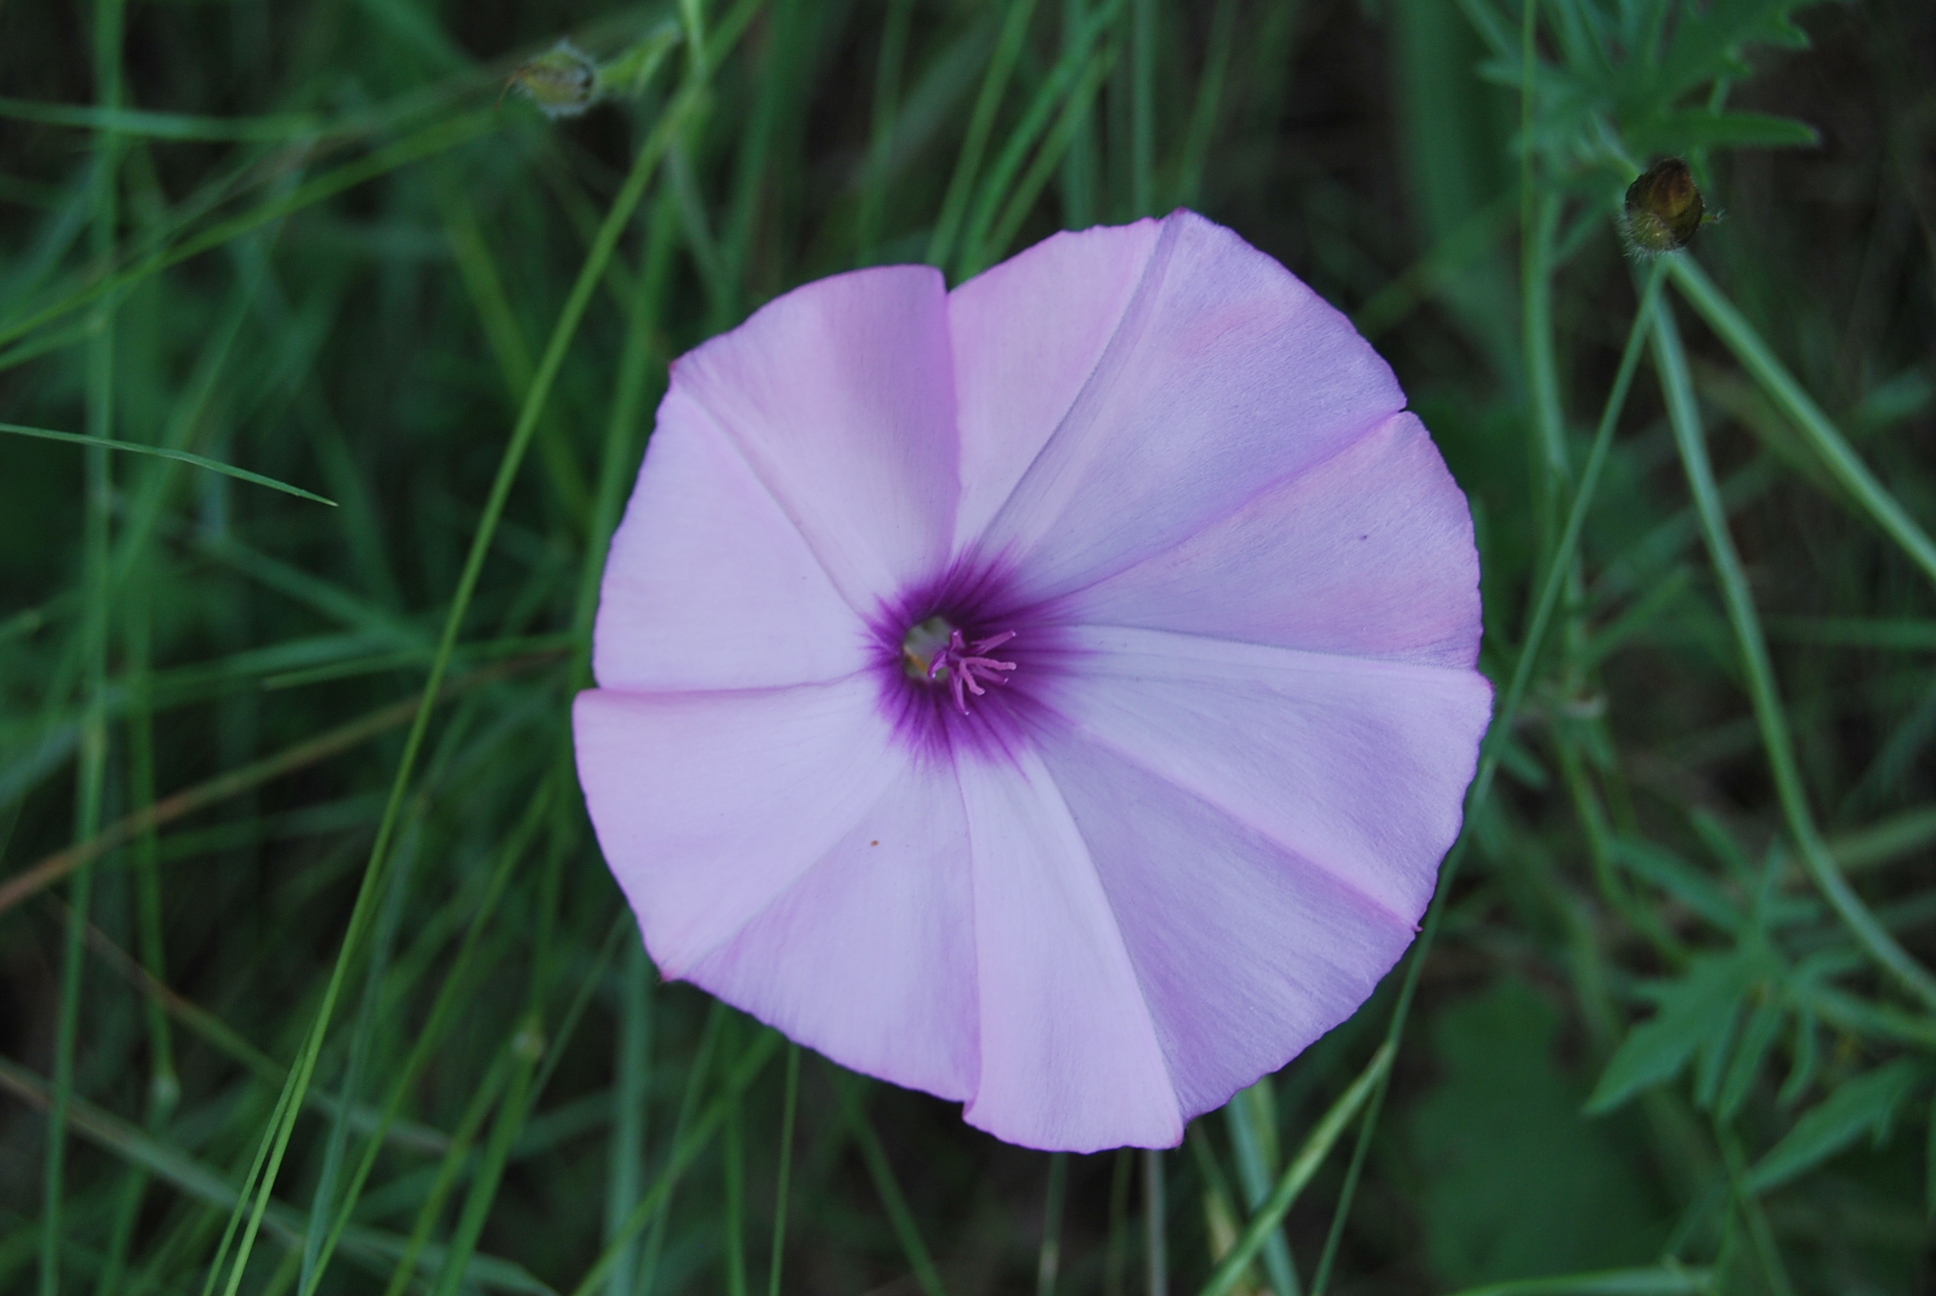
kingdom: Plantae
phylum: Tracheophyta
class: Magnoliopsida
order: Solanales
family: Convolvulaceae
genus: Convolvulus
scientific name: Convolvulus althaeoides
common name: Mallow bindweed
